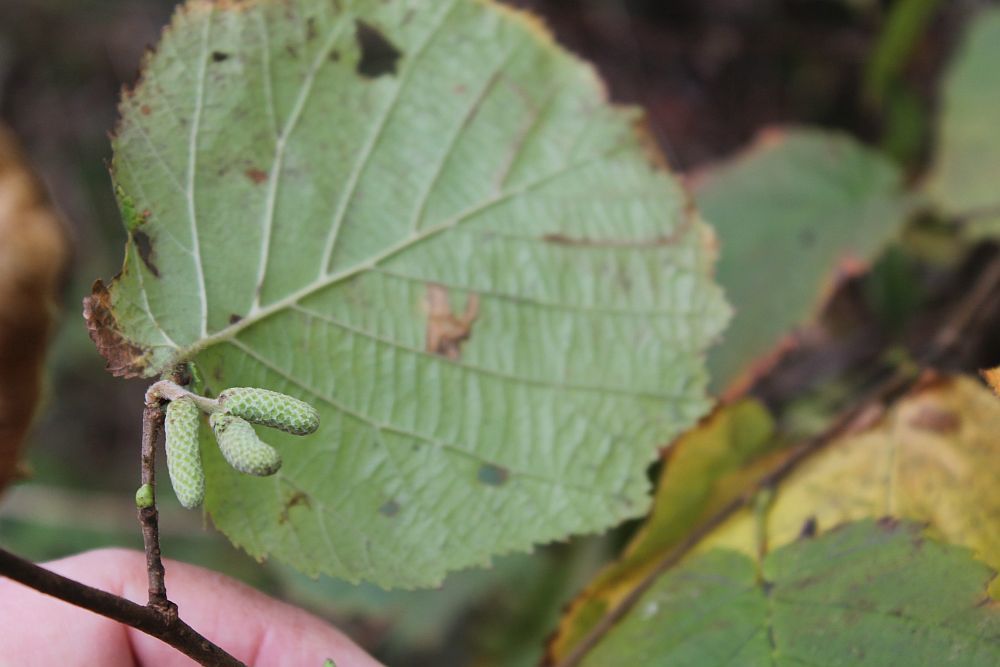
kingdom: Plantae
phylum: Tracheophyta
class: Magnoliopsida
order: Fagales
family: Betulaceae
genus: Corylus
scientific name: Corylus avellana
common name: European hazel
